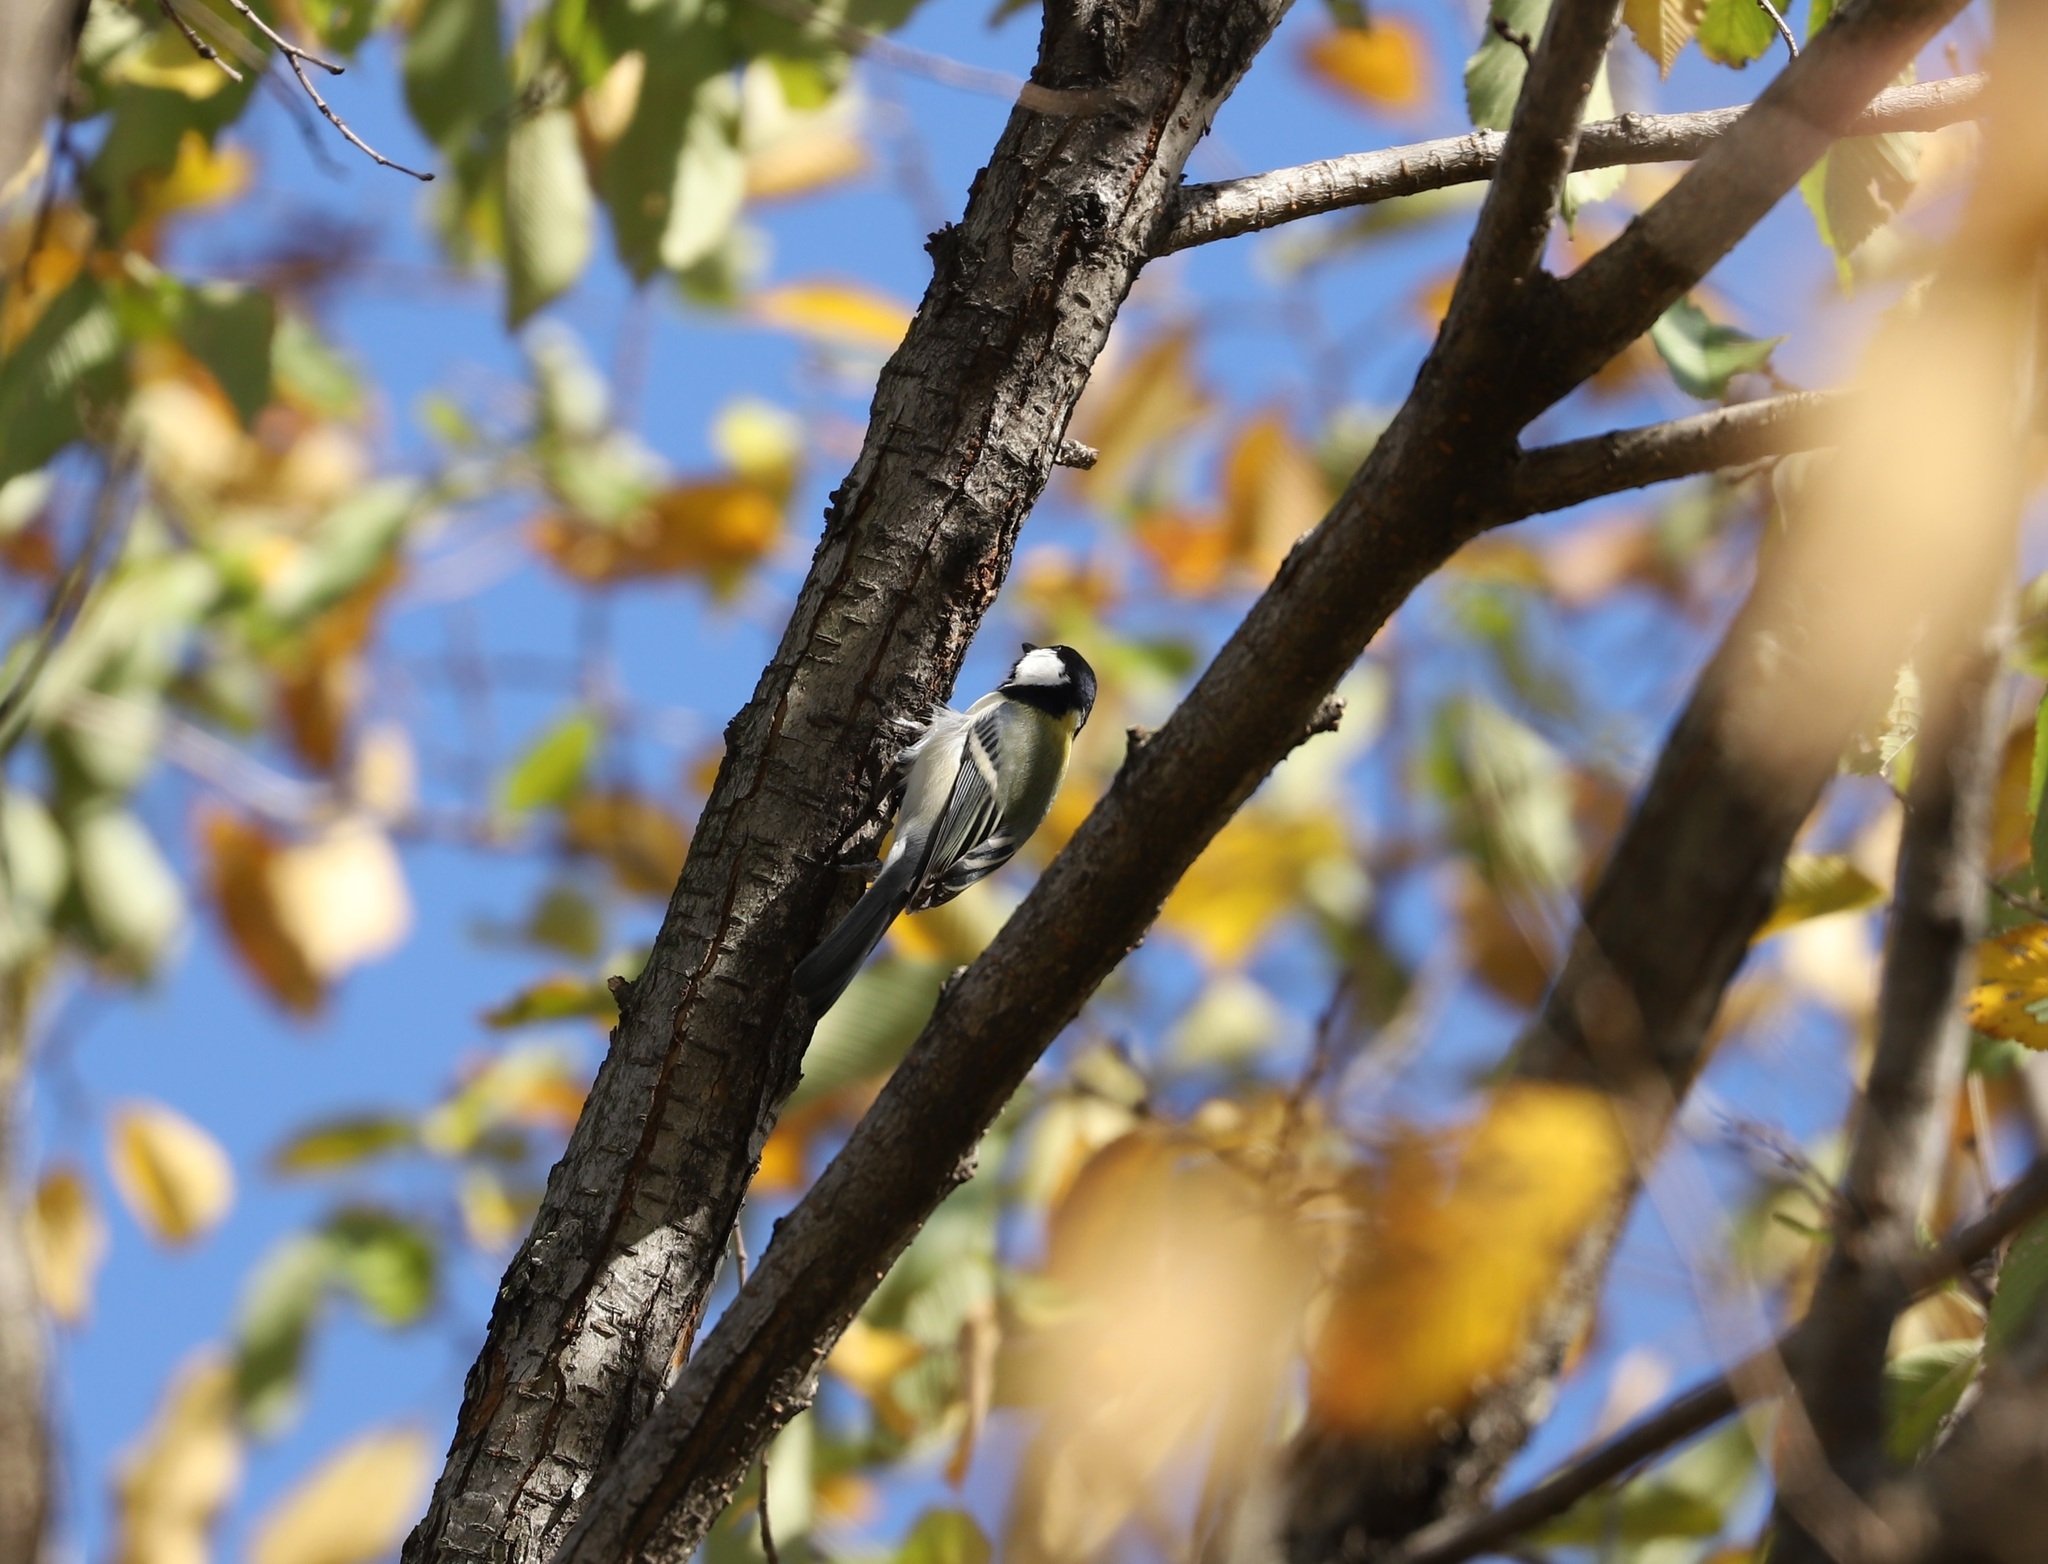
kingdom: Animalia
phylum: Chordata
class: Aves
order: Passeriformes
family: Paridae
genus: Parus
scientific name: Parus minor
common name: Japanese tit
